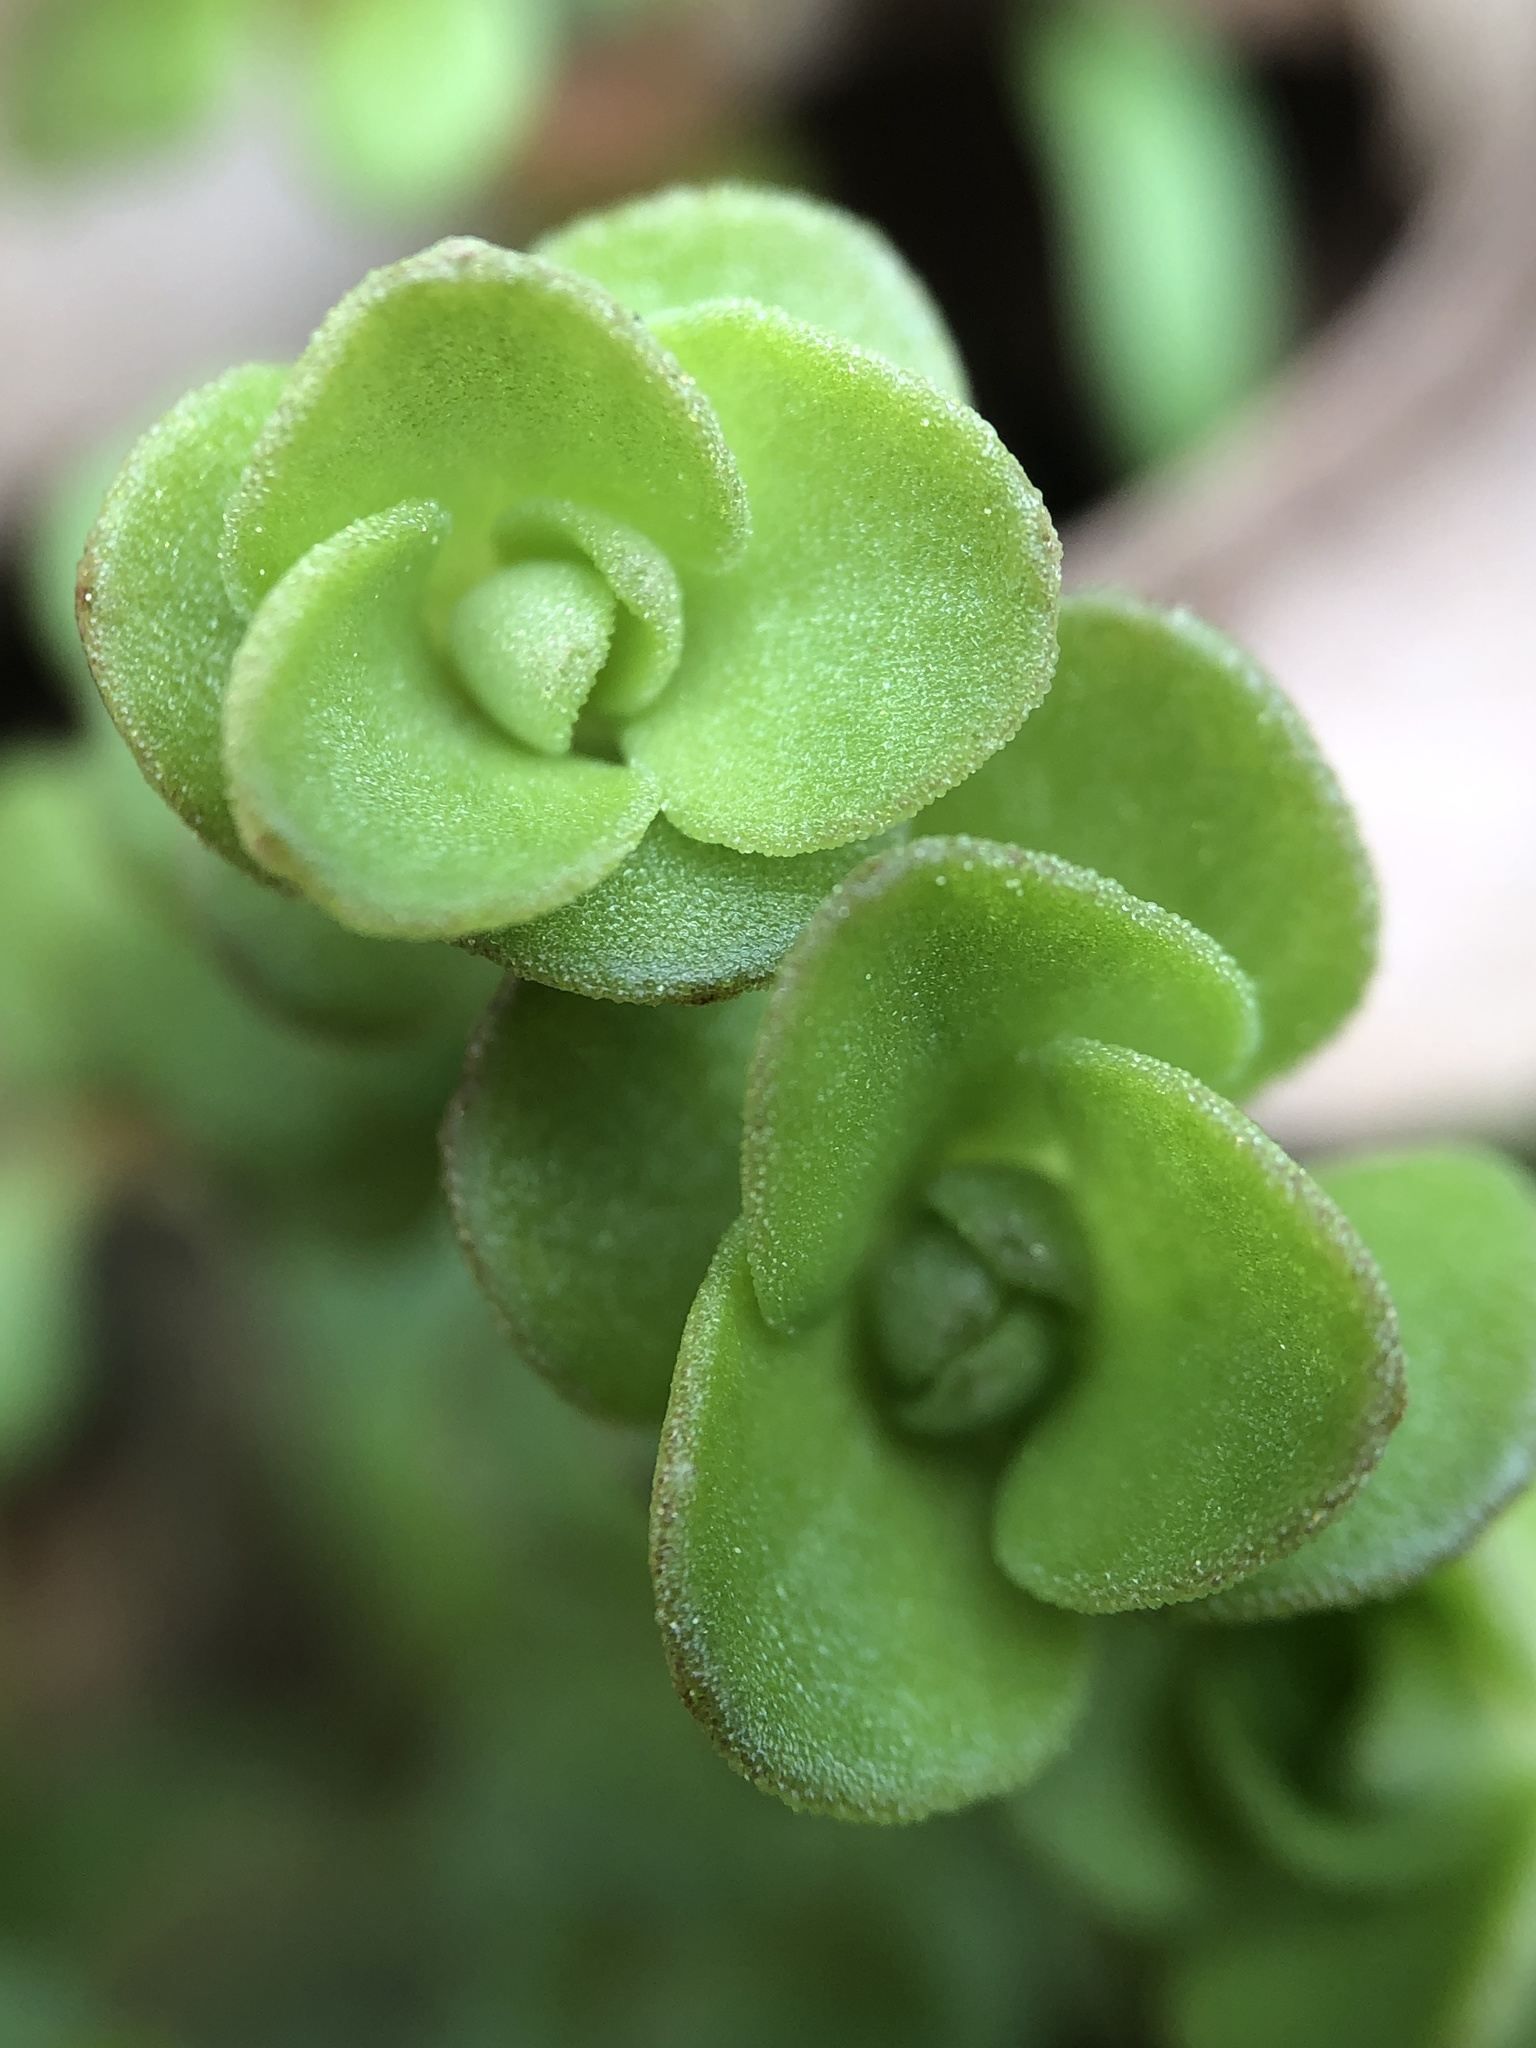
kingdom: Plantae
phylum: Tracheophyta
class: Magnoliopsida
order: Saxifragales
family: Crassulaceae
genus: Sedum
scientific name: Sedum ternatum
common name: Wild stonecrop
